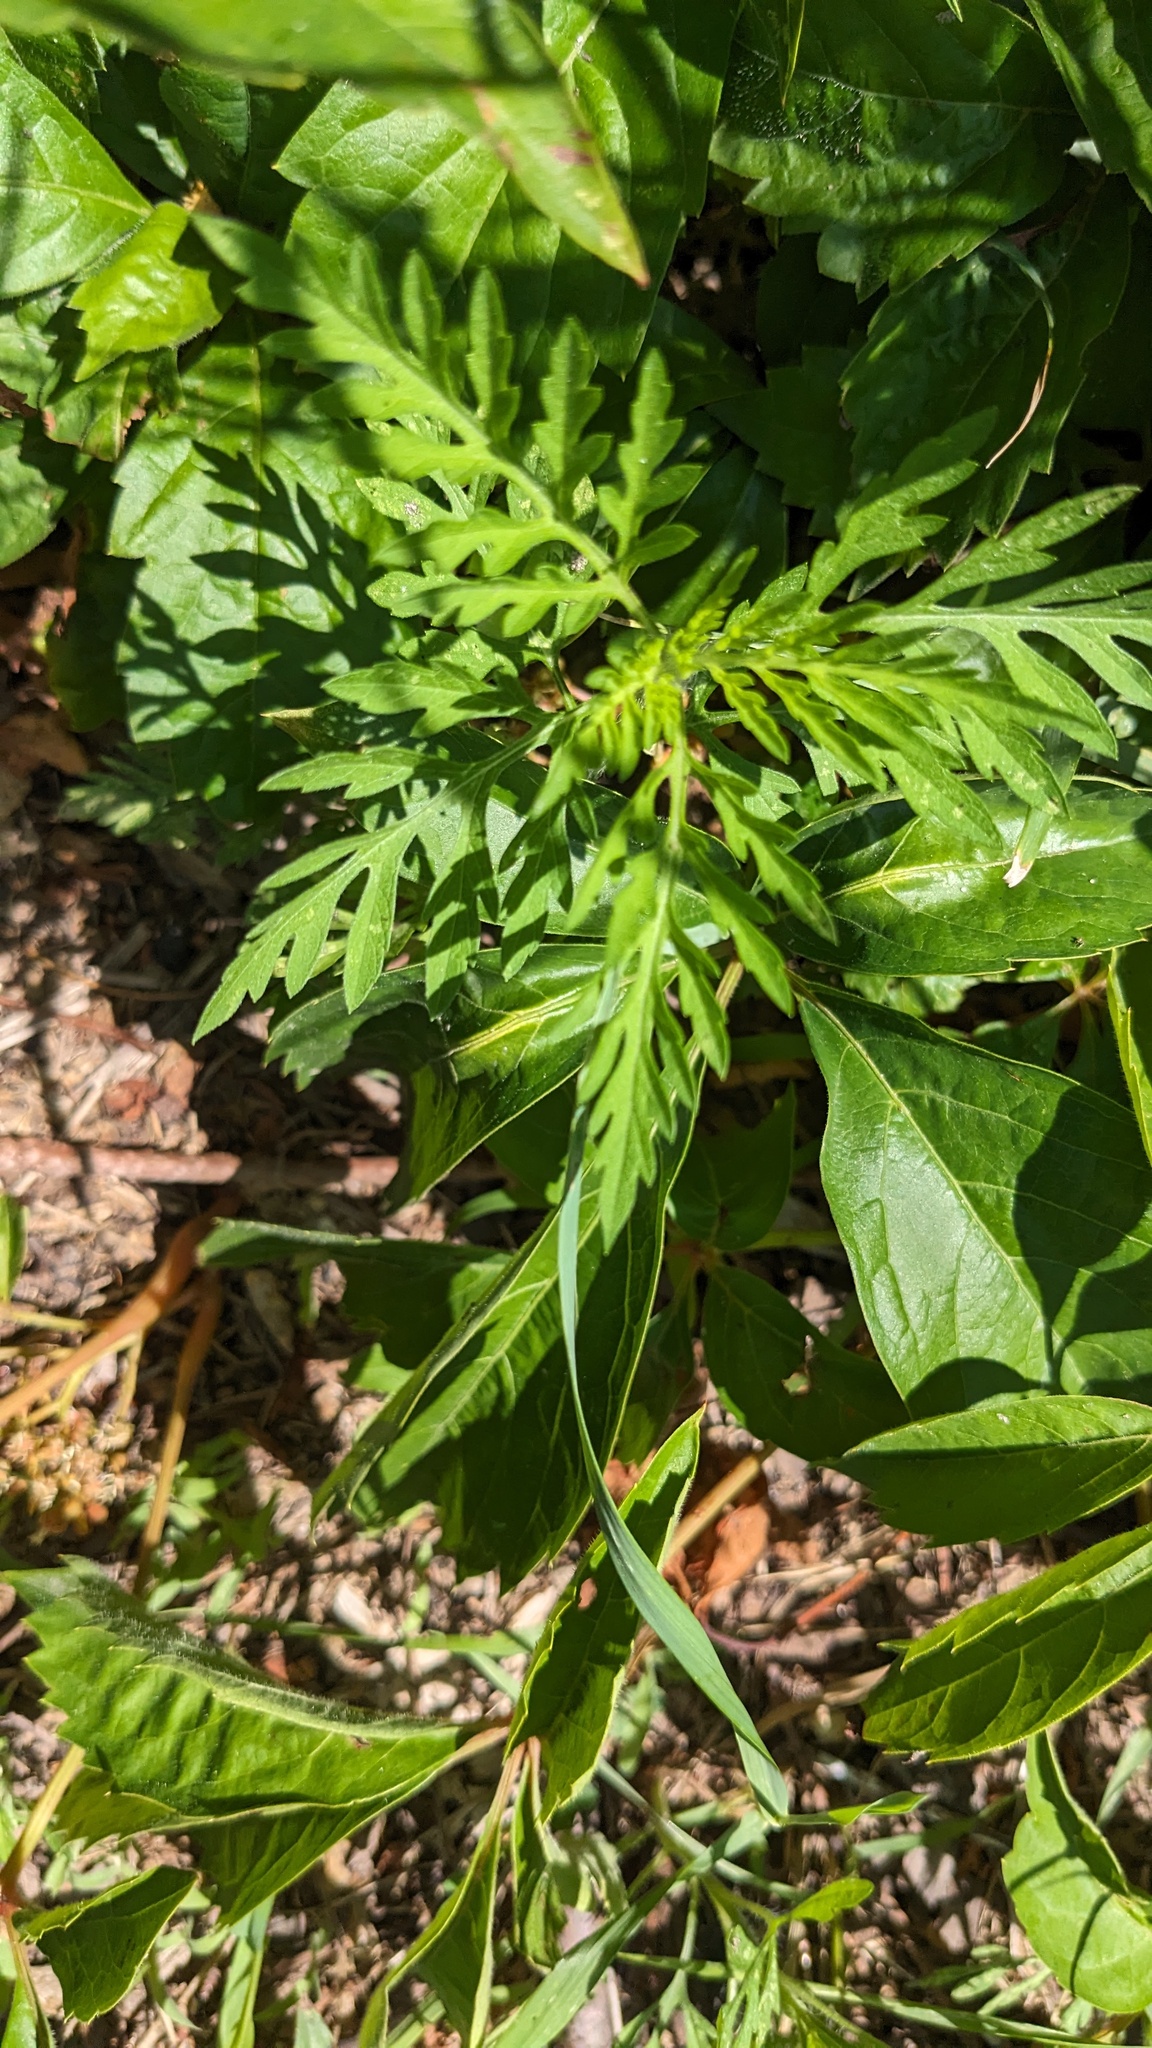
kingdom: Plantae
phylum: Tracheophyta
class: Magnoliopsida
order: Asterales
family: Asteraceae
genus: Ambrosia
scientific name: Ambrosia artemisiifolia
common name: Annual ragweed
